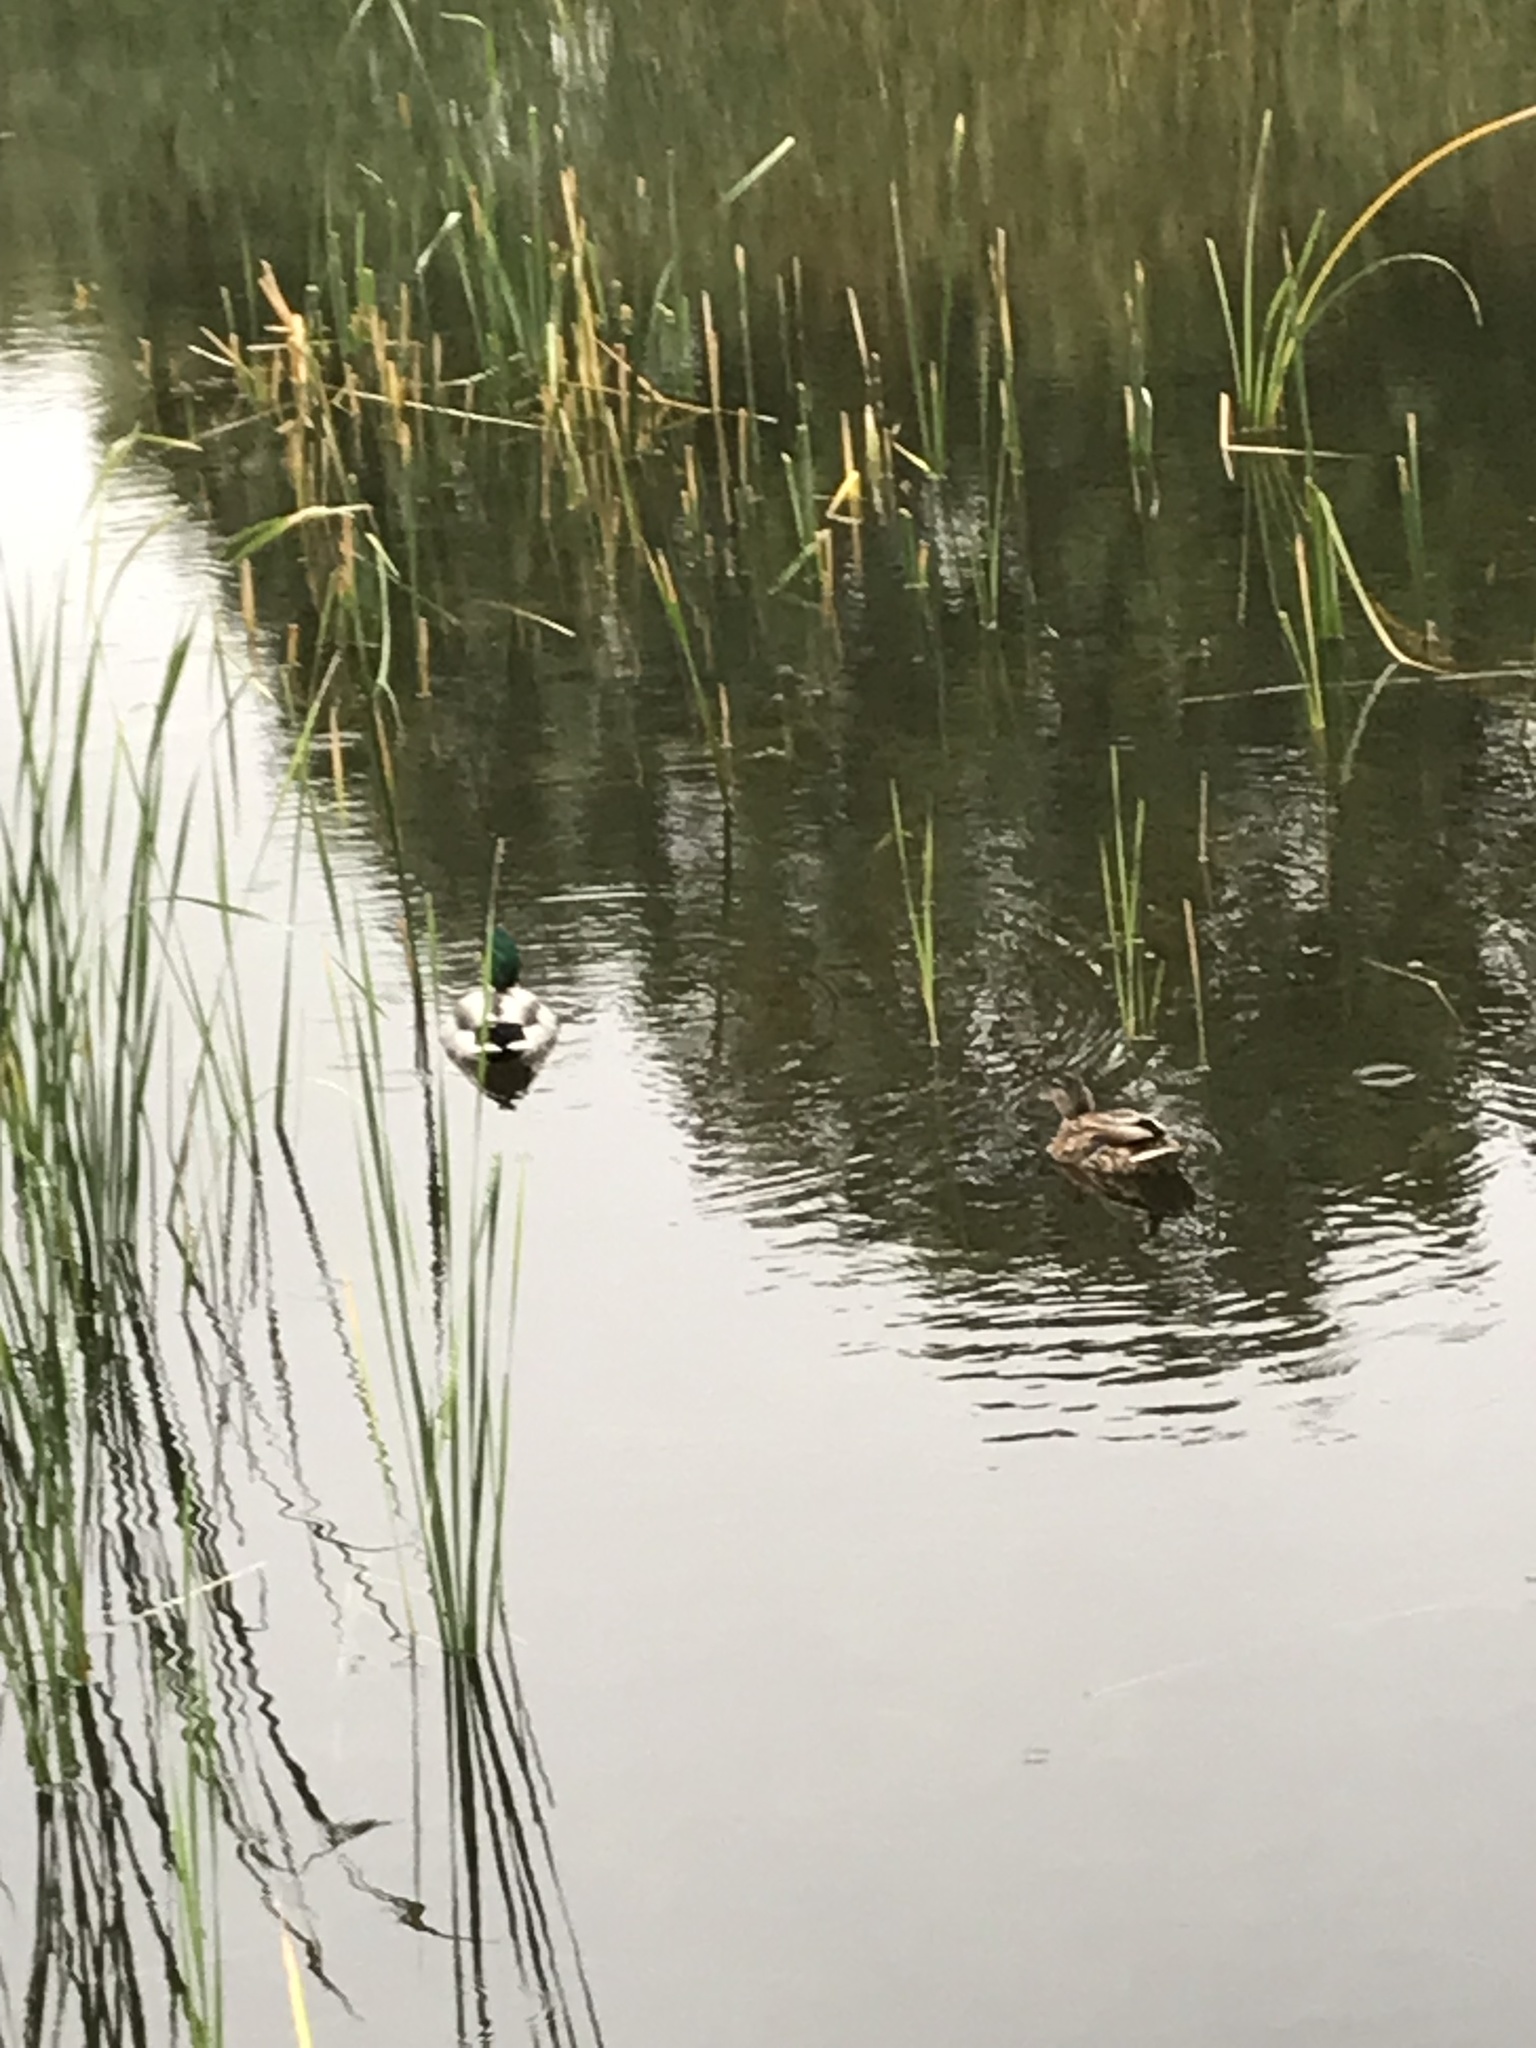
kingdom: Animalia
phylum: Chordata
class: Aves
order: Anseriformes
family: Anatidae
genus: Anas
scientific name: Anas platyrhynchos
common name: Mallard
